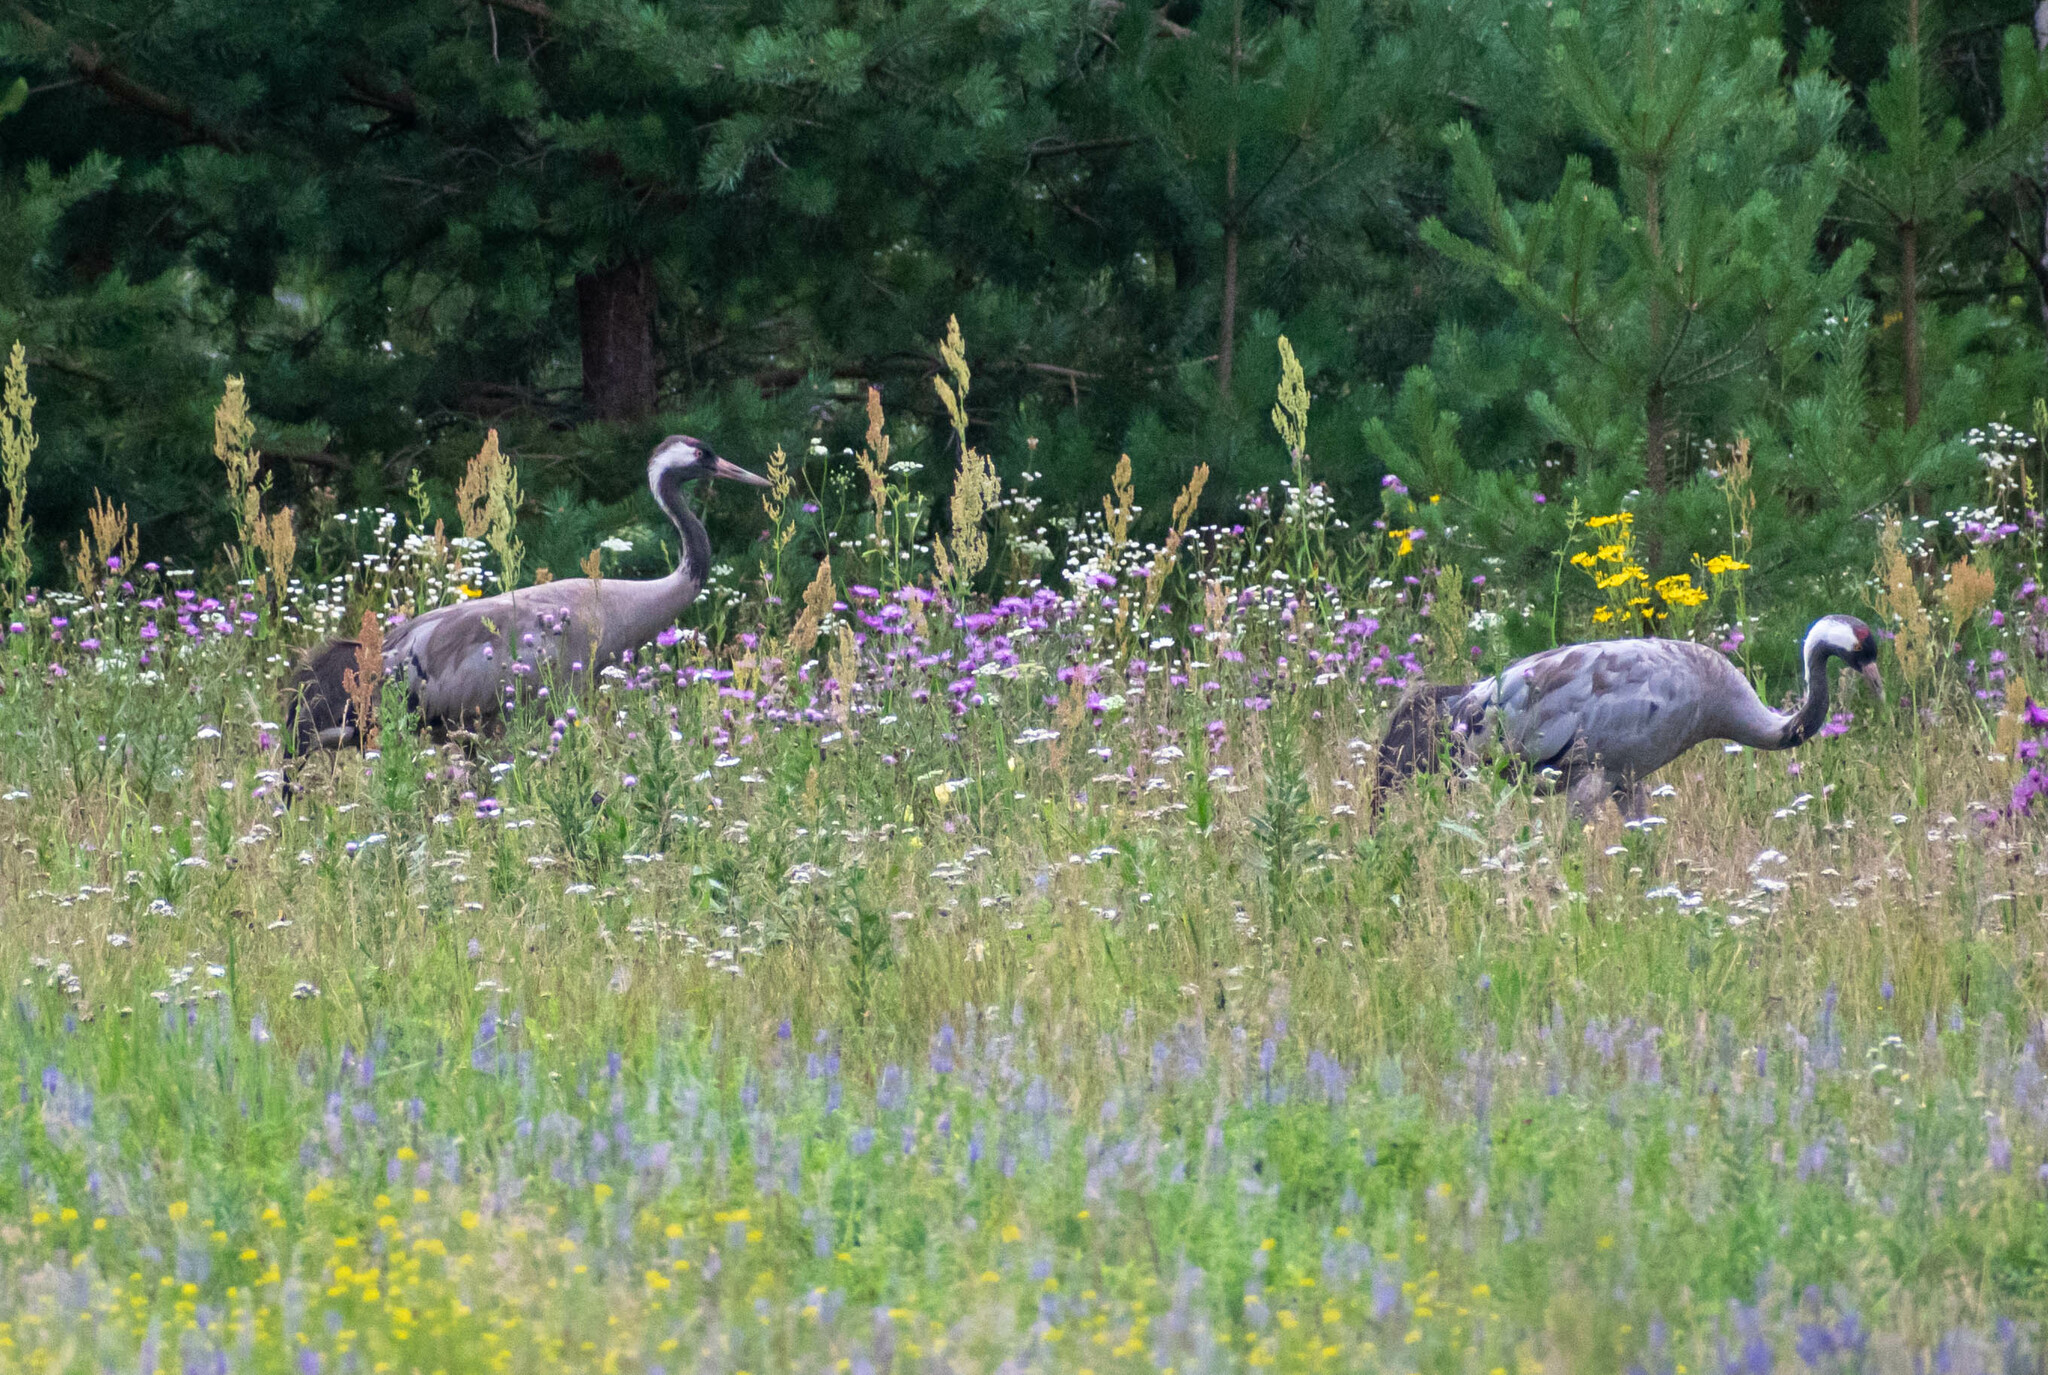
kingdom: Animalia
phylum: Chordata
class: Aves
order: Gruiformes
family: Gruidae
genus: Grus
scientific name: Grus grus
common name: Common crane
